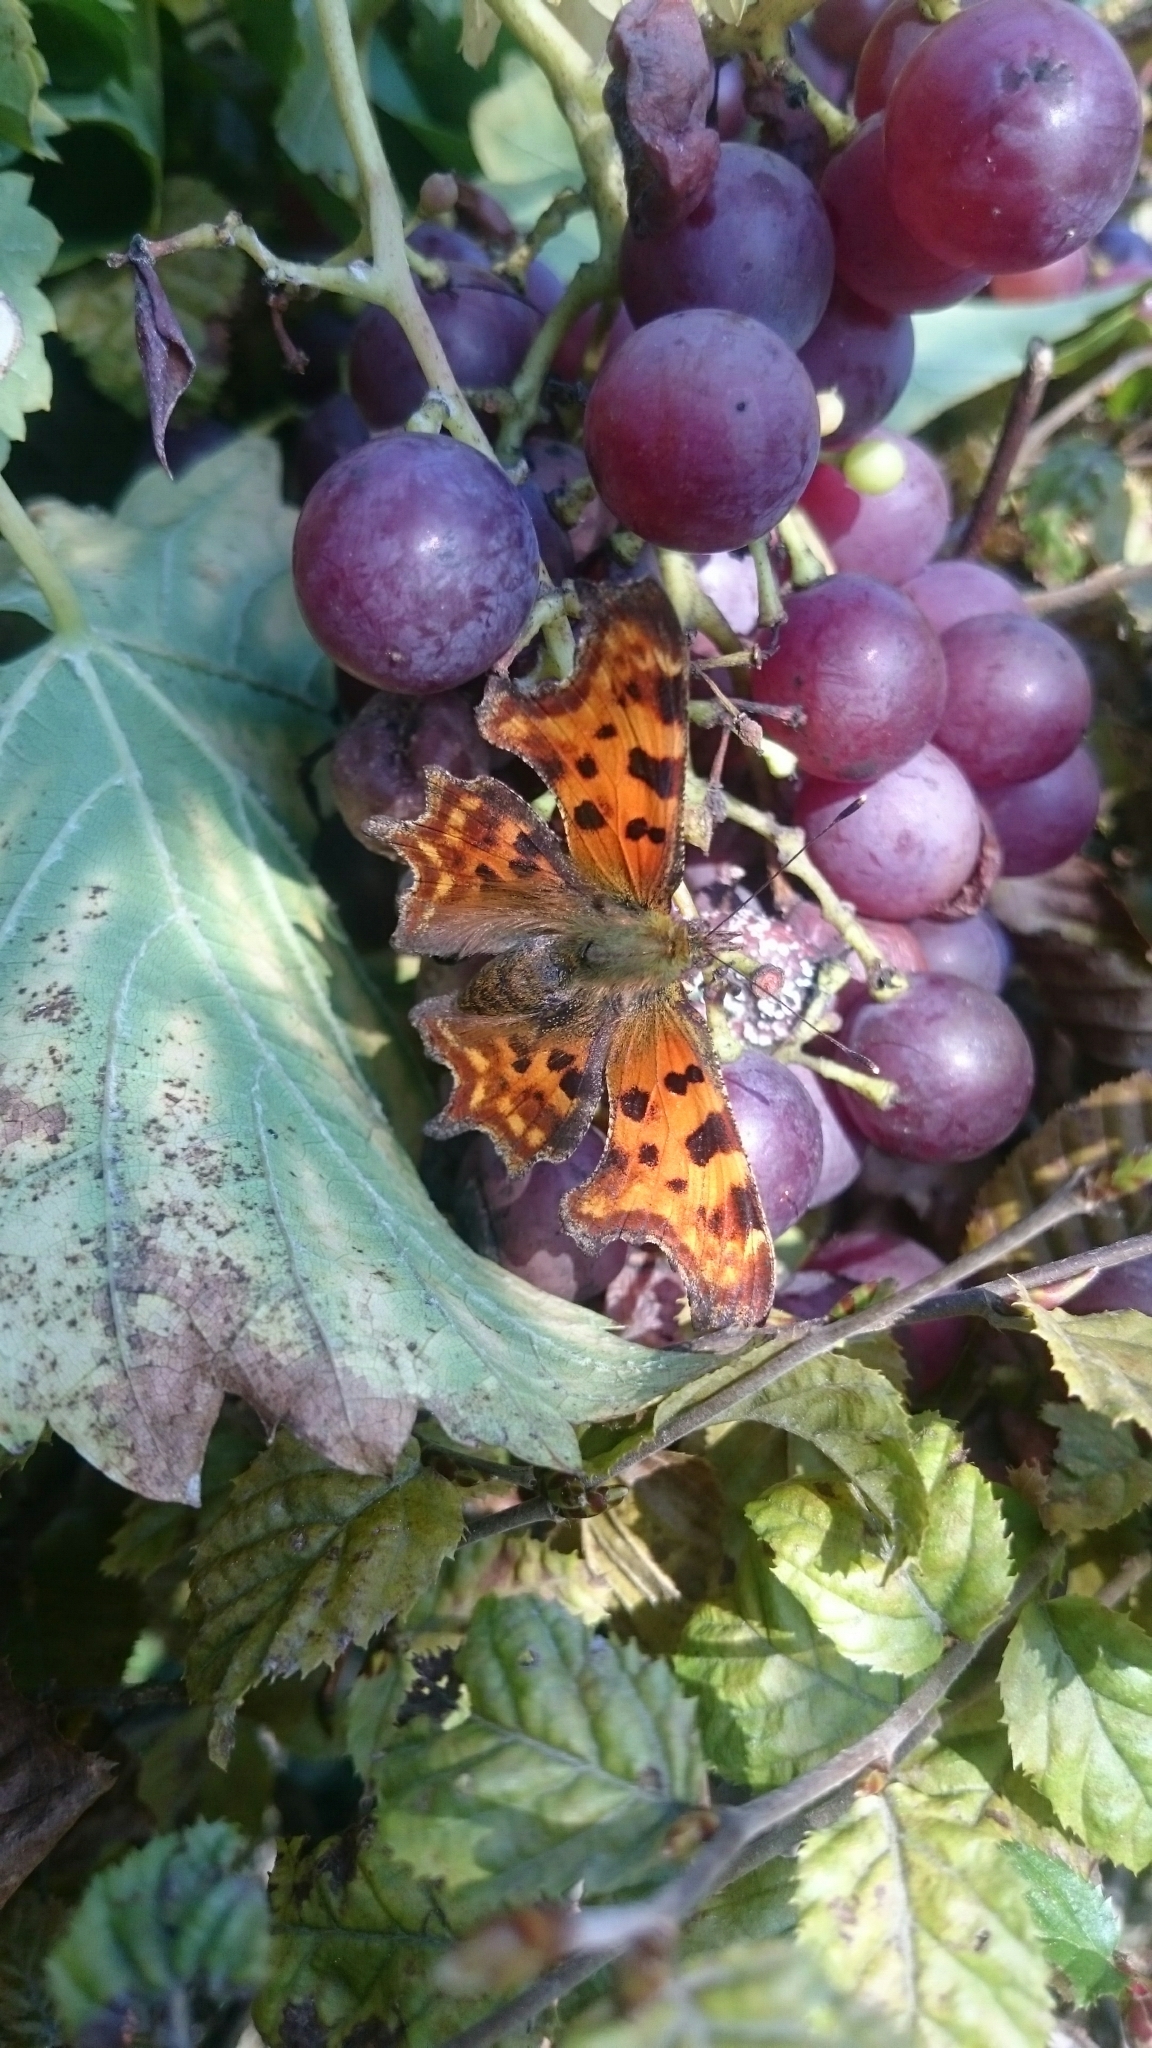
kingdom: Animalia
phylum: Arthropoda
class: Insecta
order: Lepidoptera
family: Nymphalidae
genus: Polygonia
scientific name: Polygonia c-album
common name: Comma
